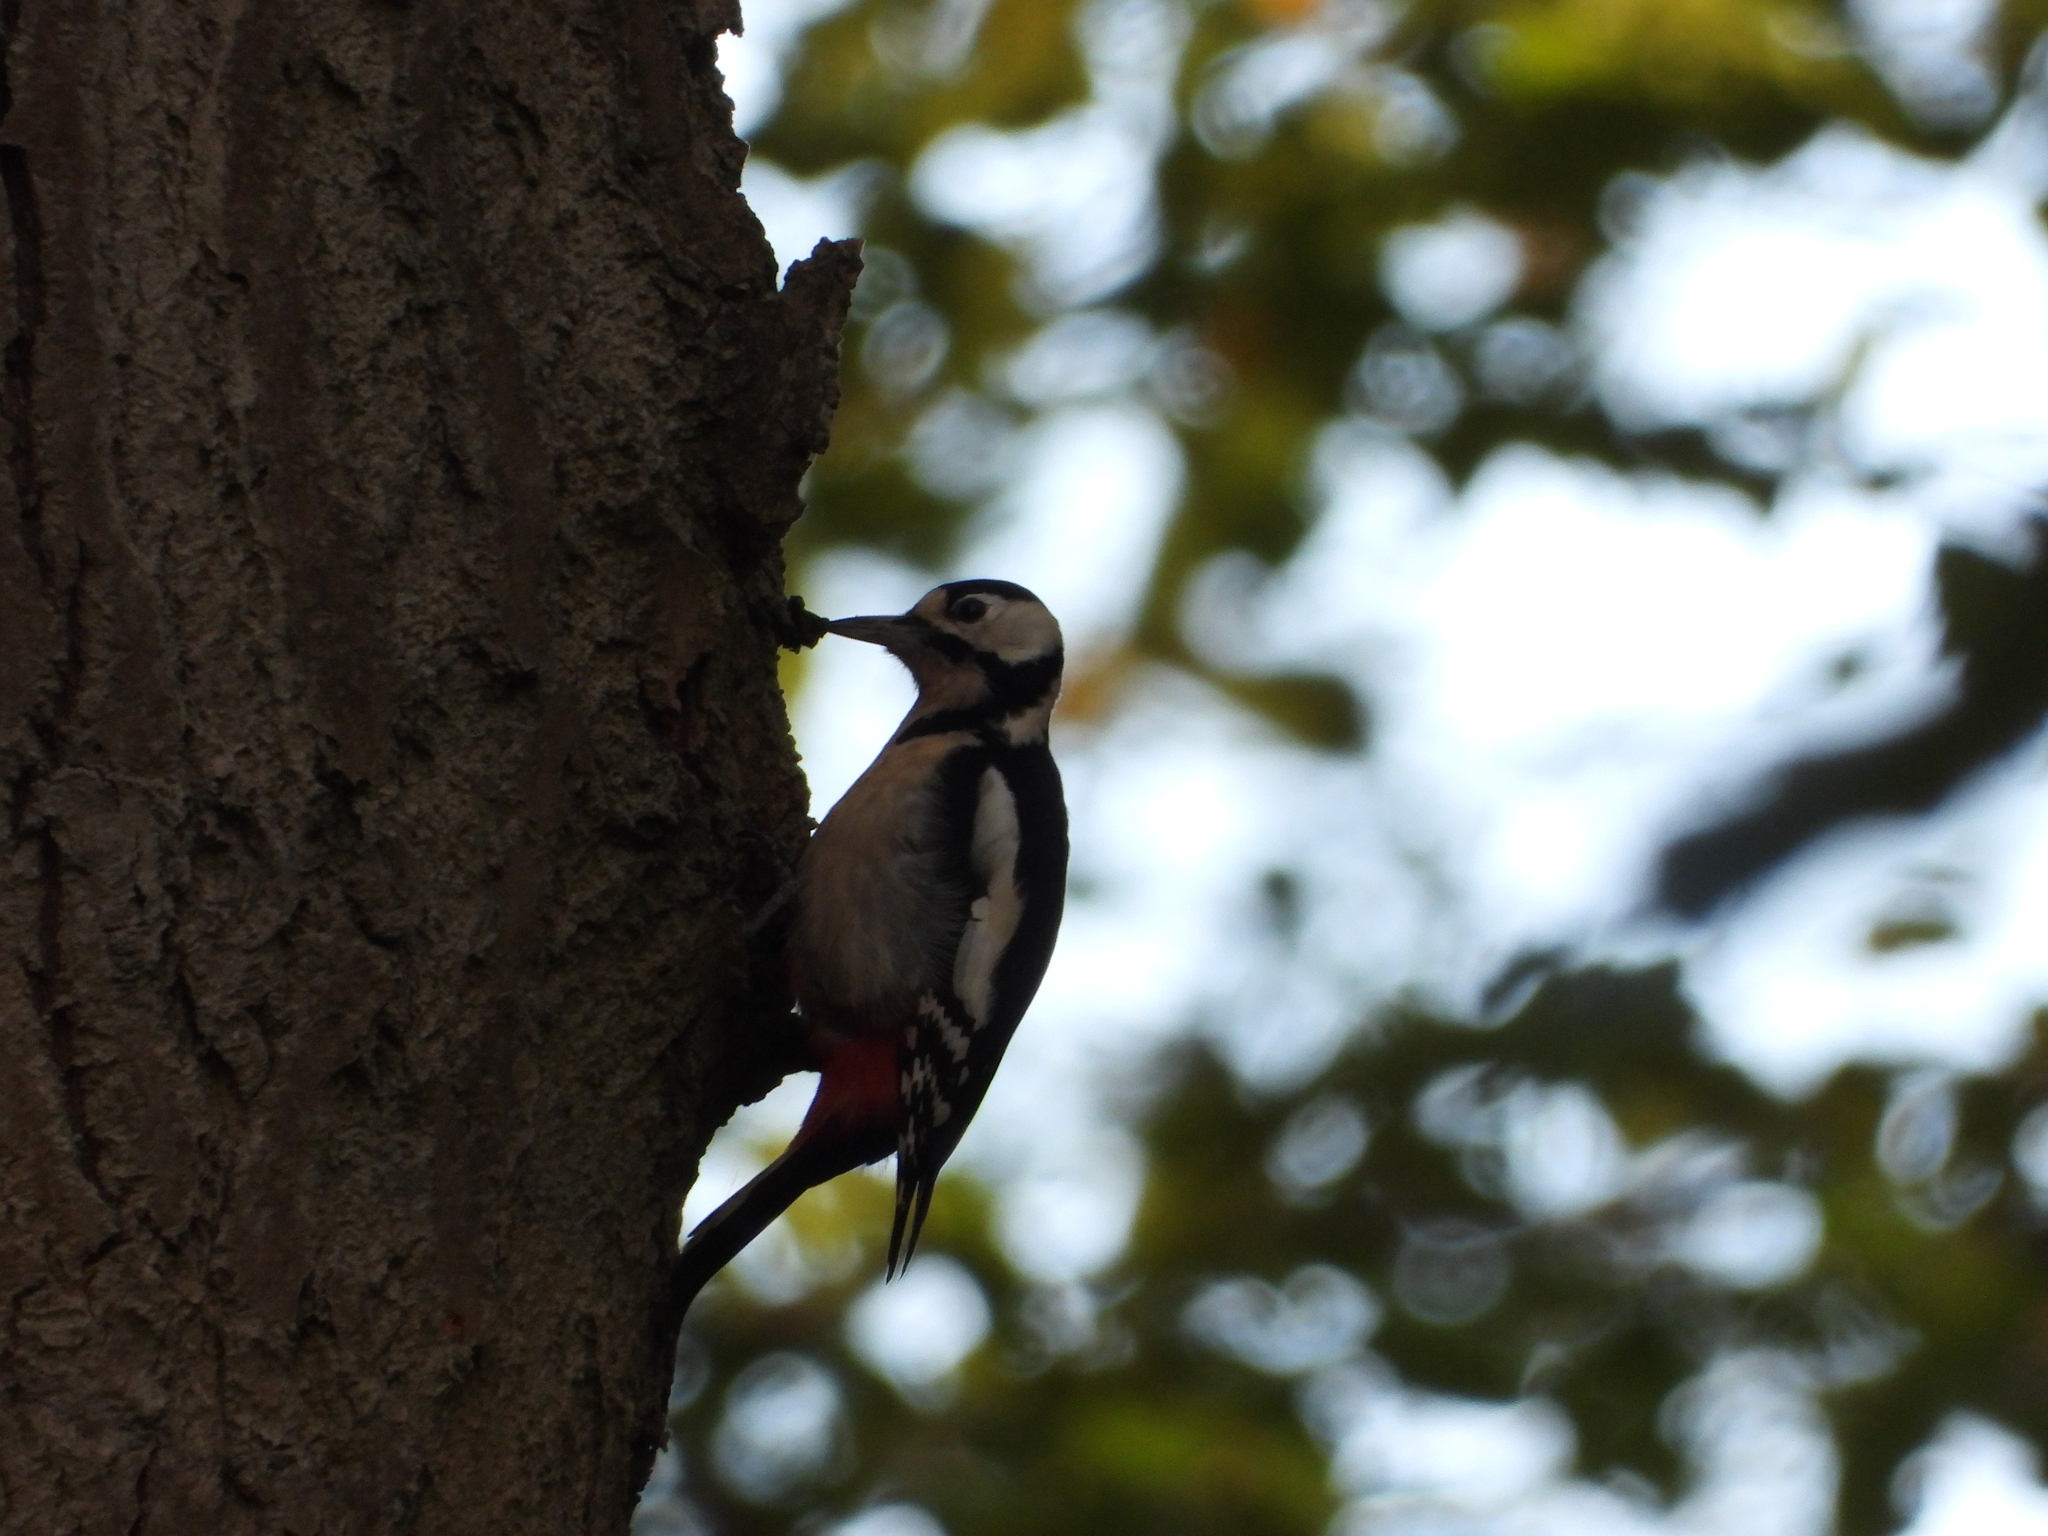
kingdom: Animalia
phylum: Chordata
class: Aves
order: Piciformes
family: Picidae
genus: Dendrocopos
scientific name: Dendrocopos major
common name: Great spotted woodpecker
